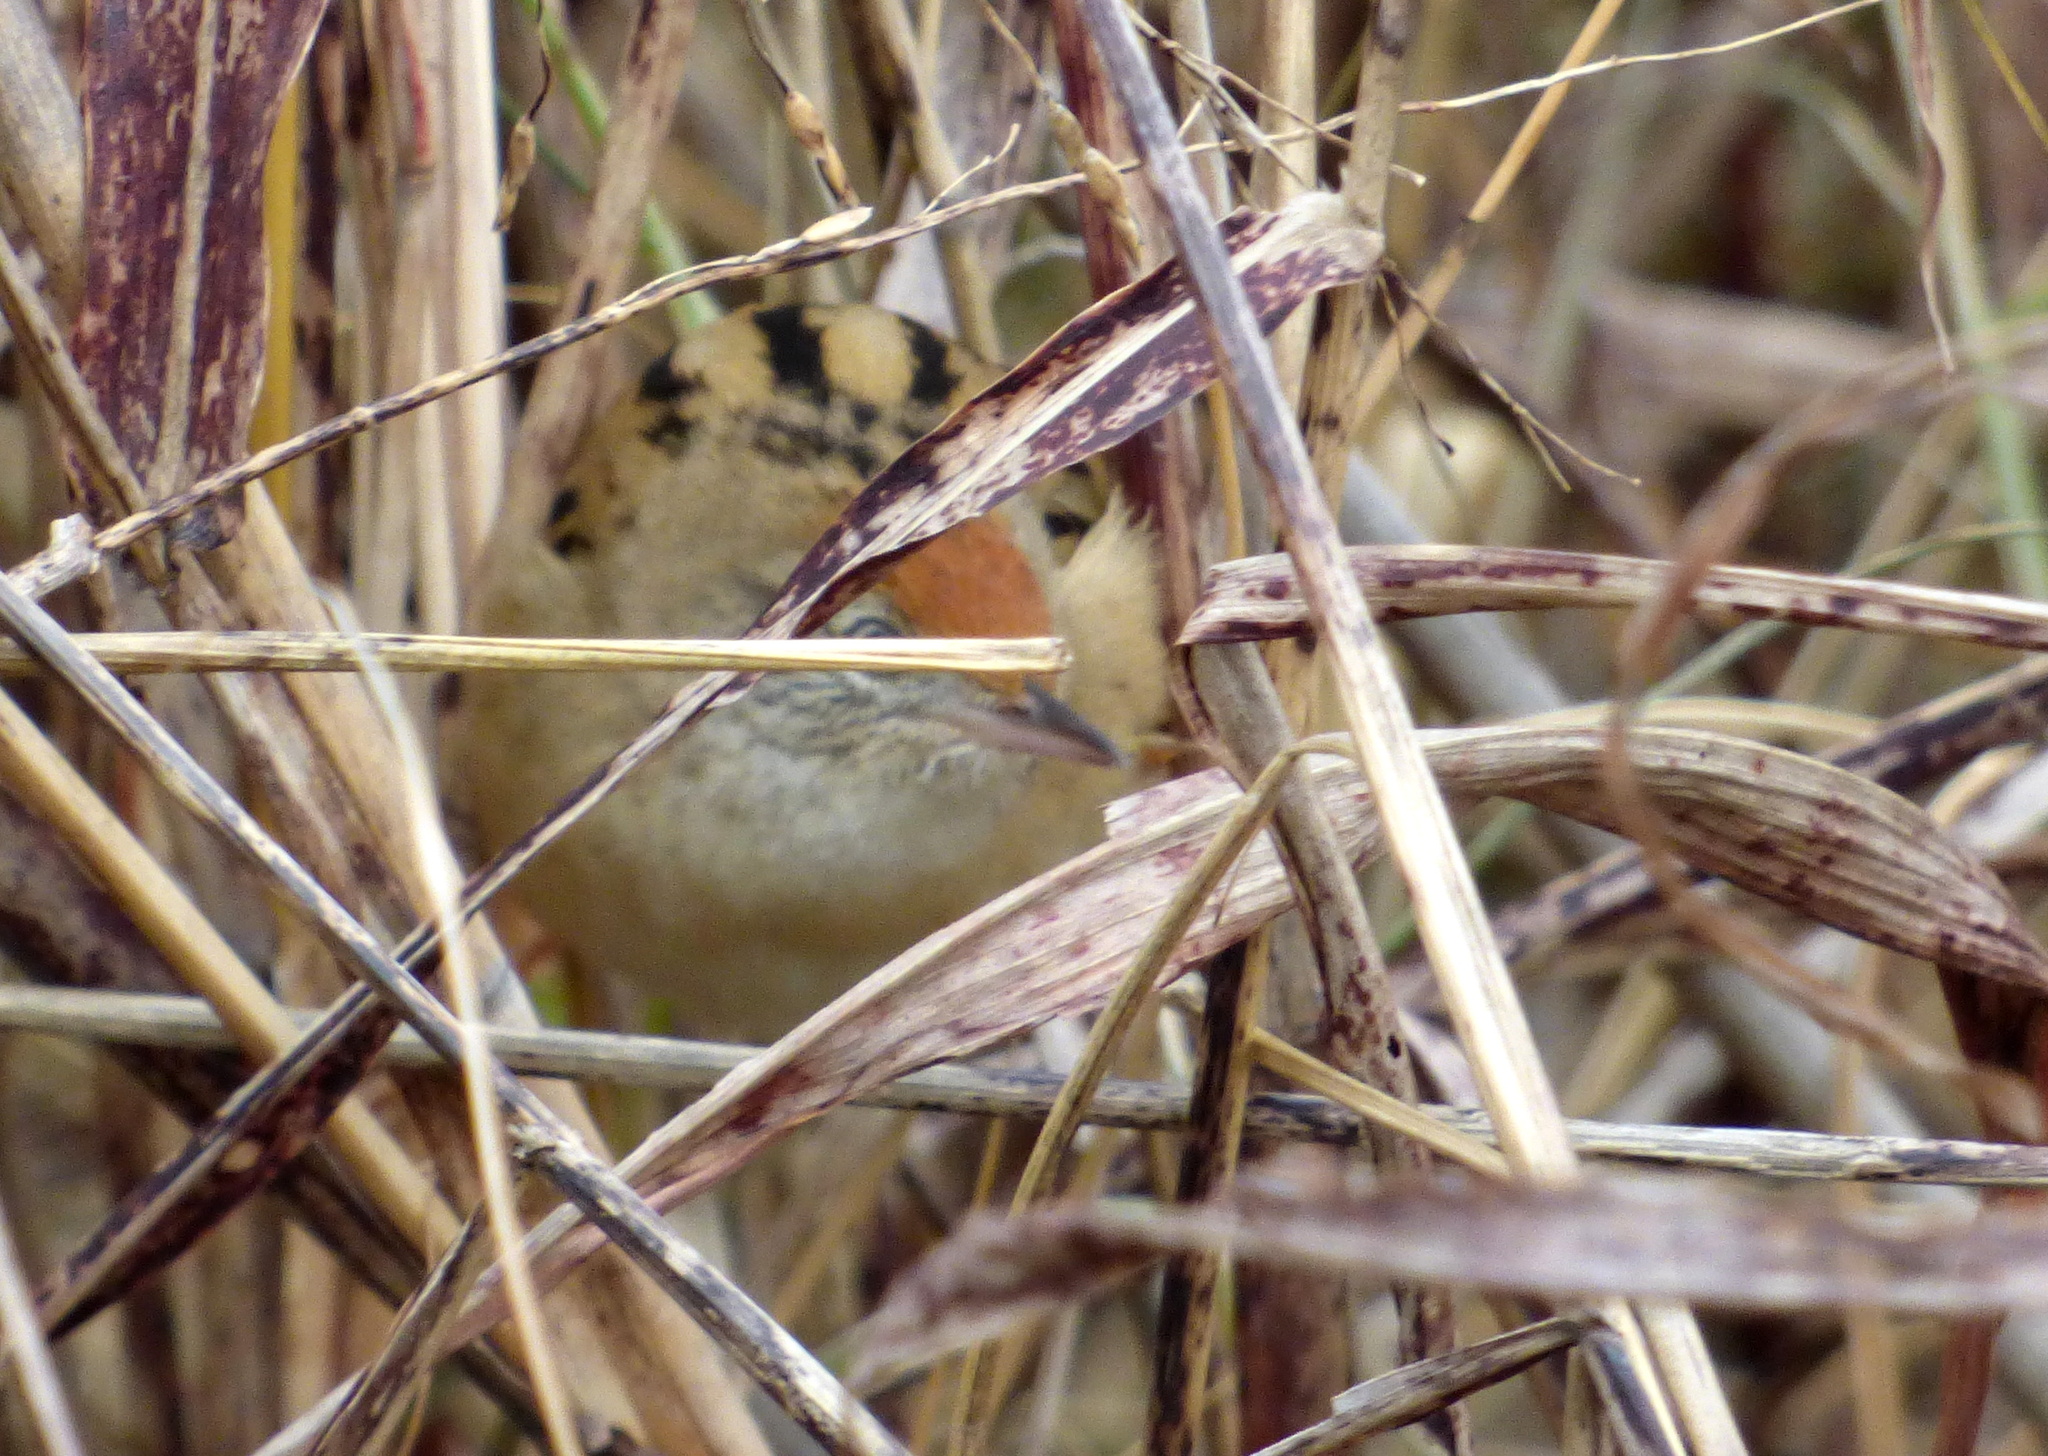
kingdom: Animalia
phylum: Chordata
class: Aves
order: Passeriformes
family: Furnariidae
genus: Spartonoica
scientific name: Spartonoica maluroides
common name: Bay-capped wren-spinetail
